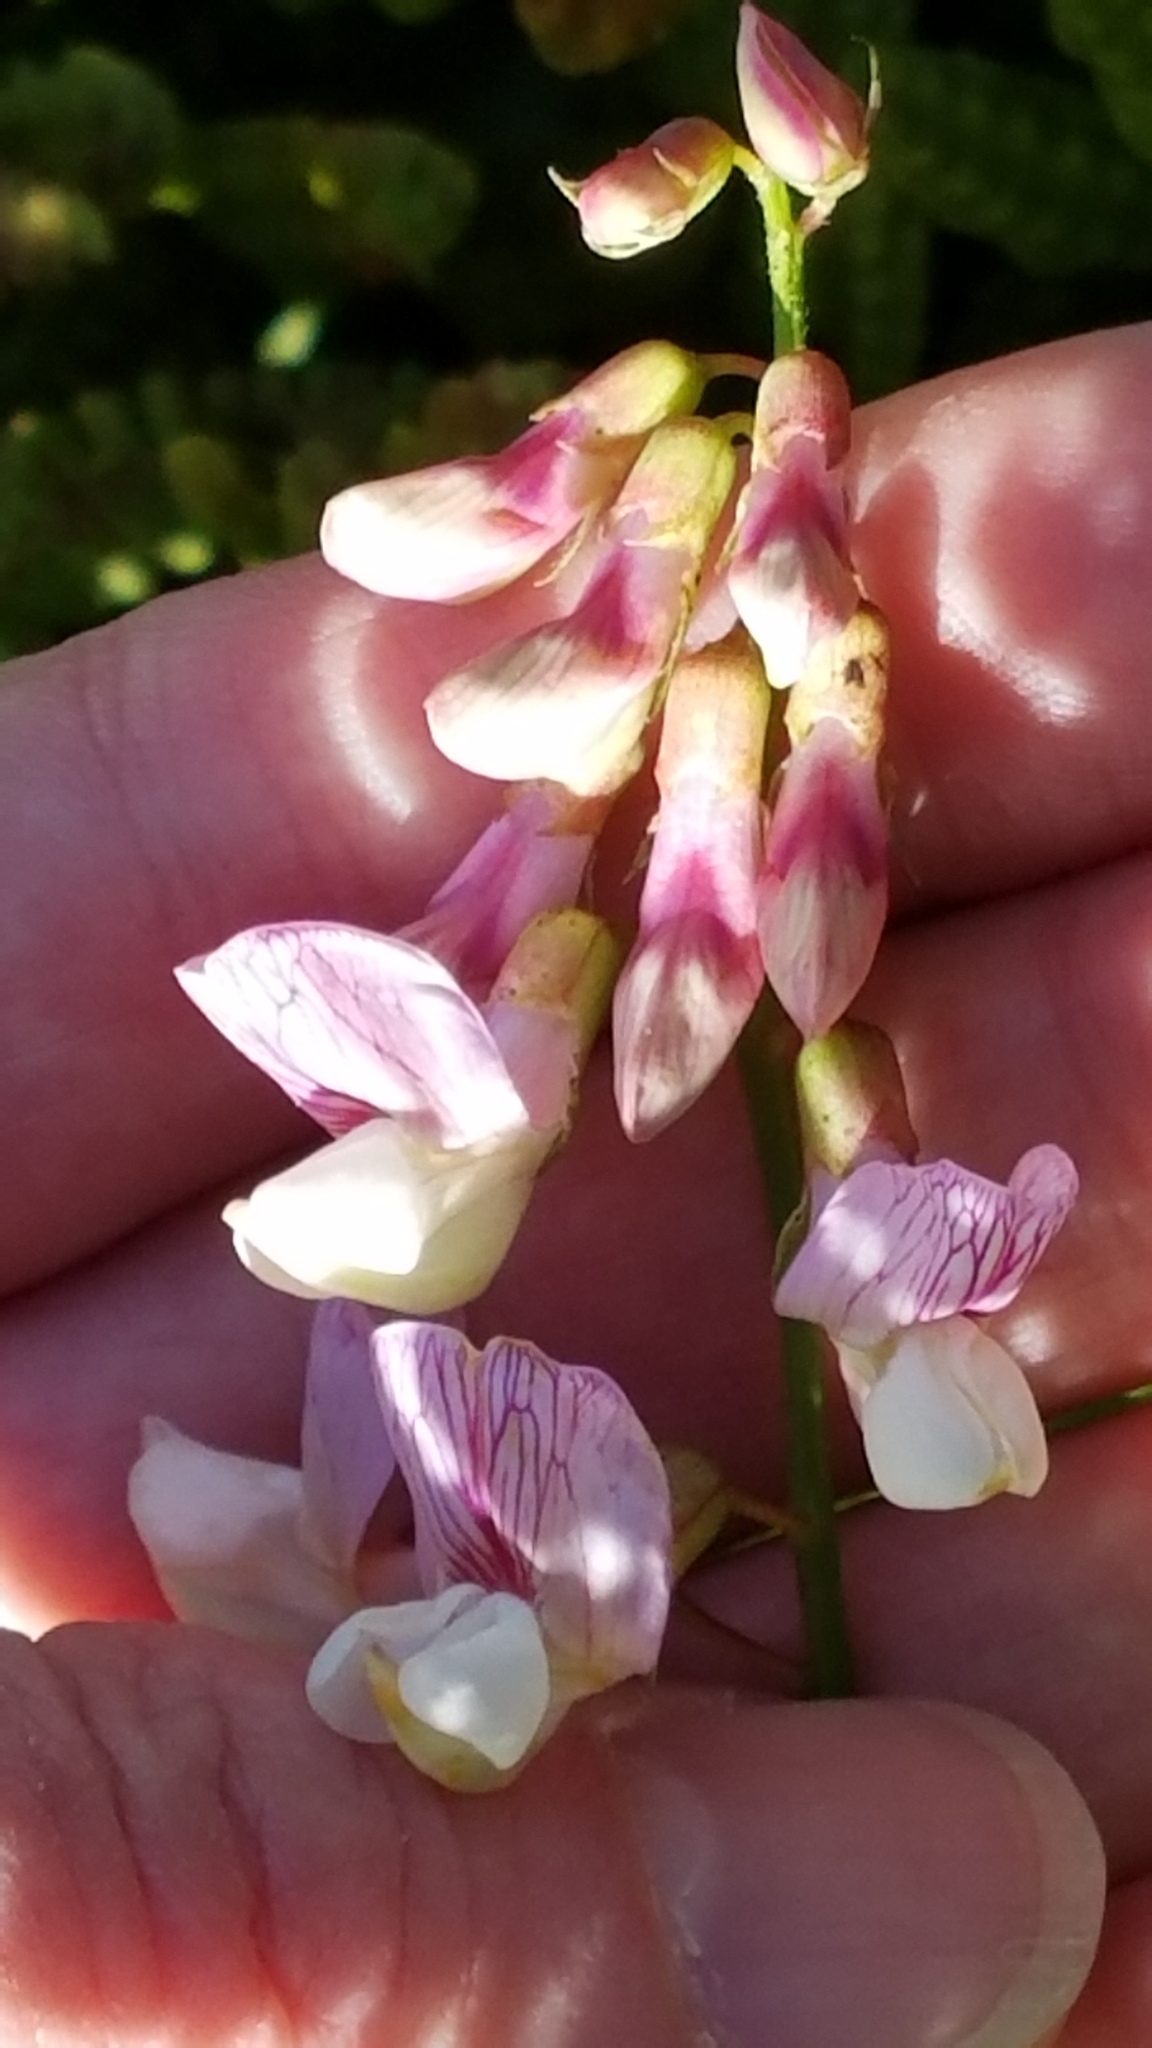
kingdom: Plantae
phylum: Tracheophyta
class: Magnoliopsida
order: Fabales
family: Fabaceae
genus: Lathyrus
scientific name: Lathyrus vestitus
